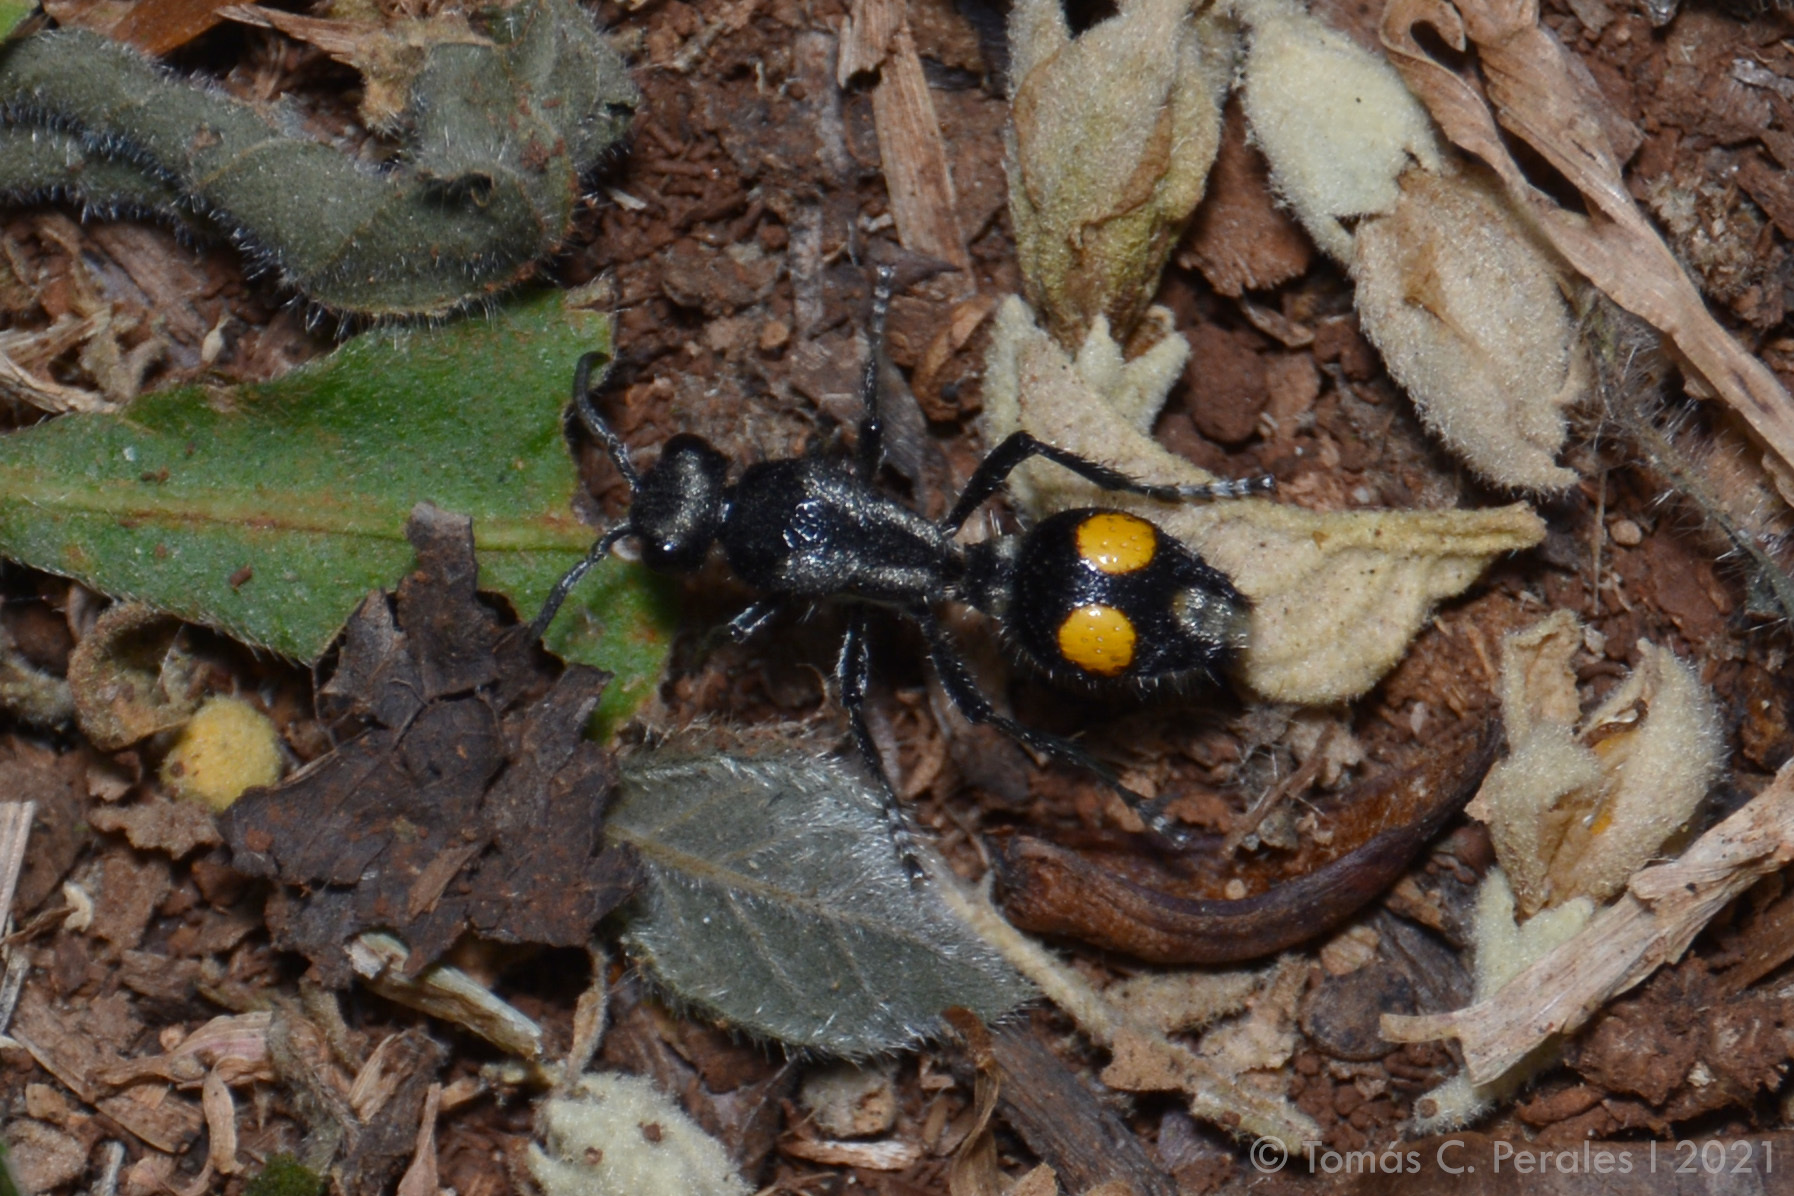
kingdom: Animalia
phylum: Arthropoda
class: Insecta
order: Hymenoptera
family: Mutillidae
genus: Traumatomutilla
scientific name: Traumatomutilla angustata
